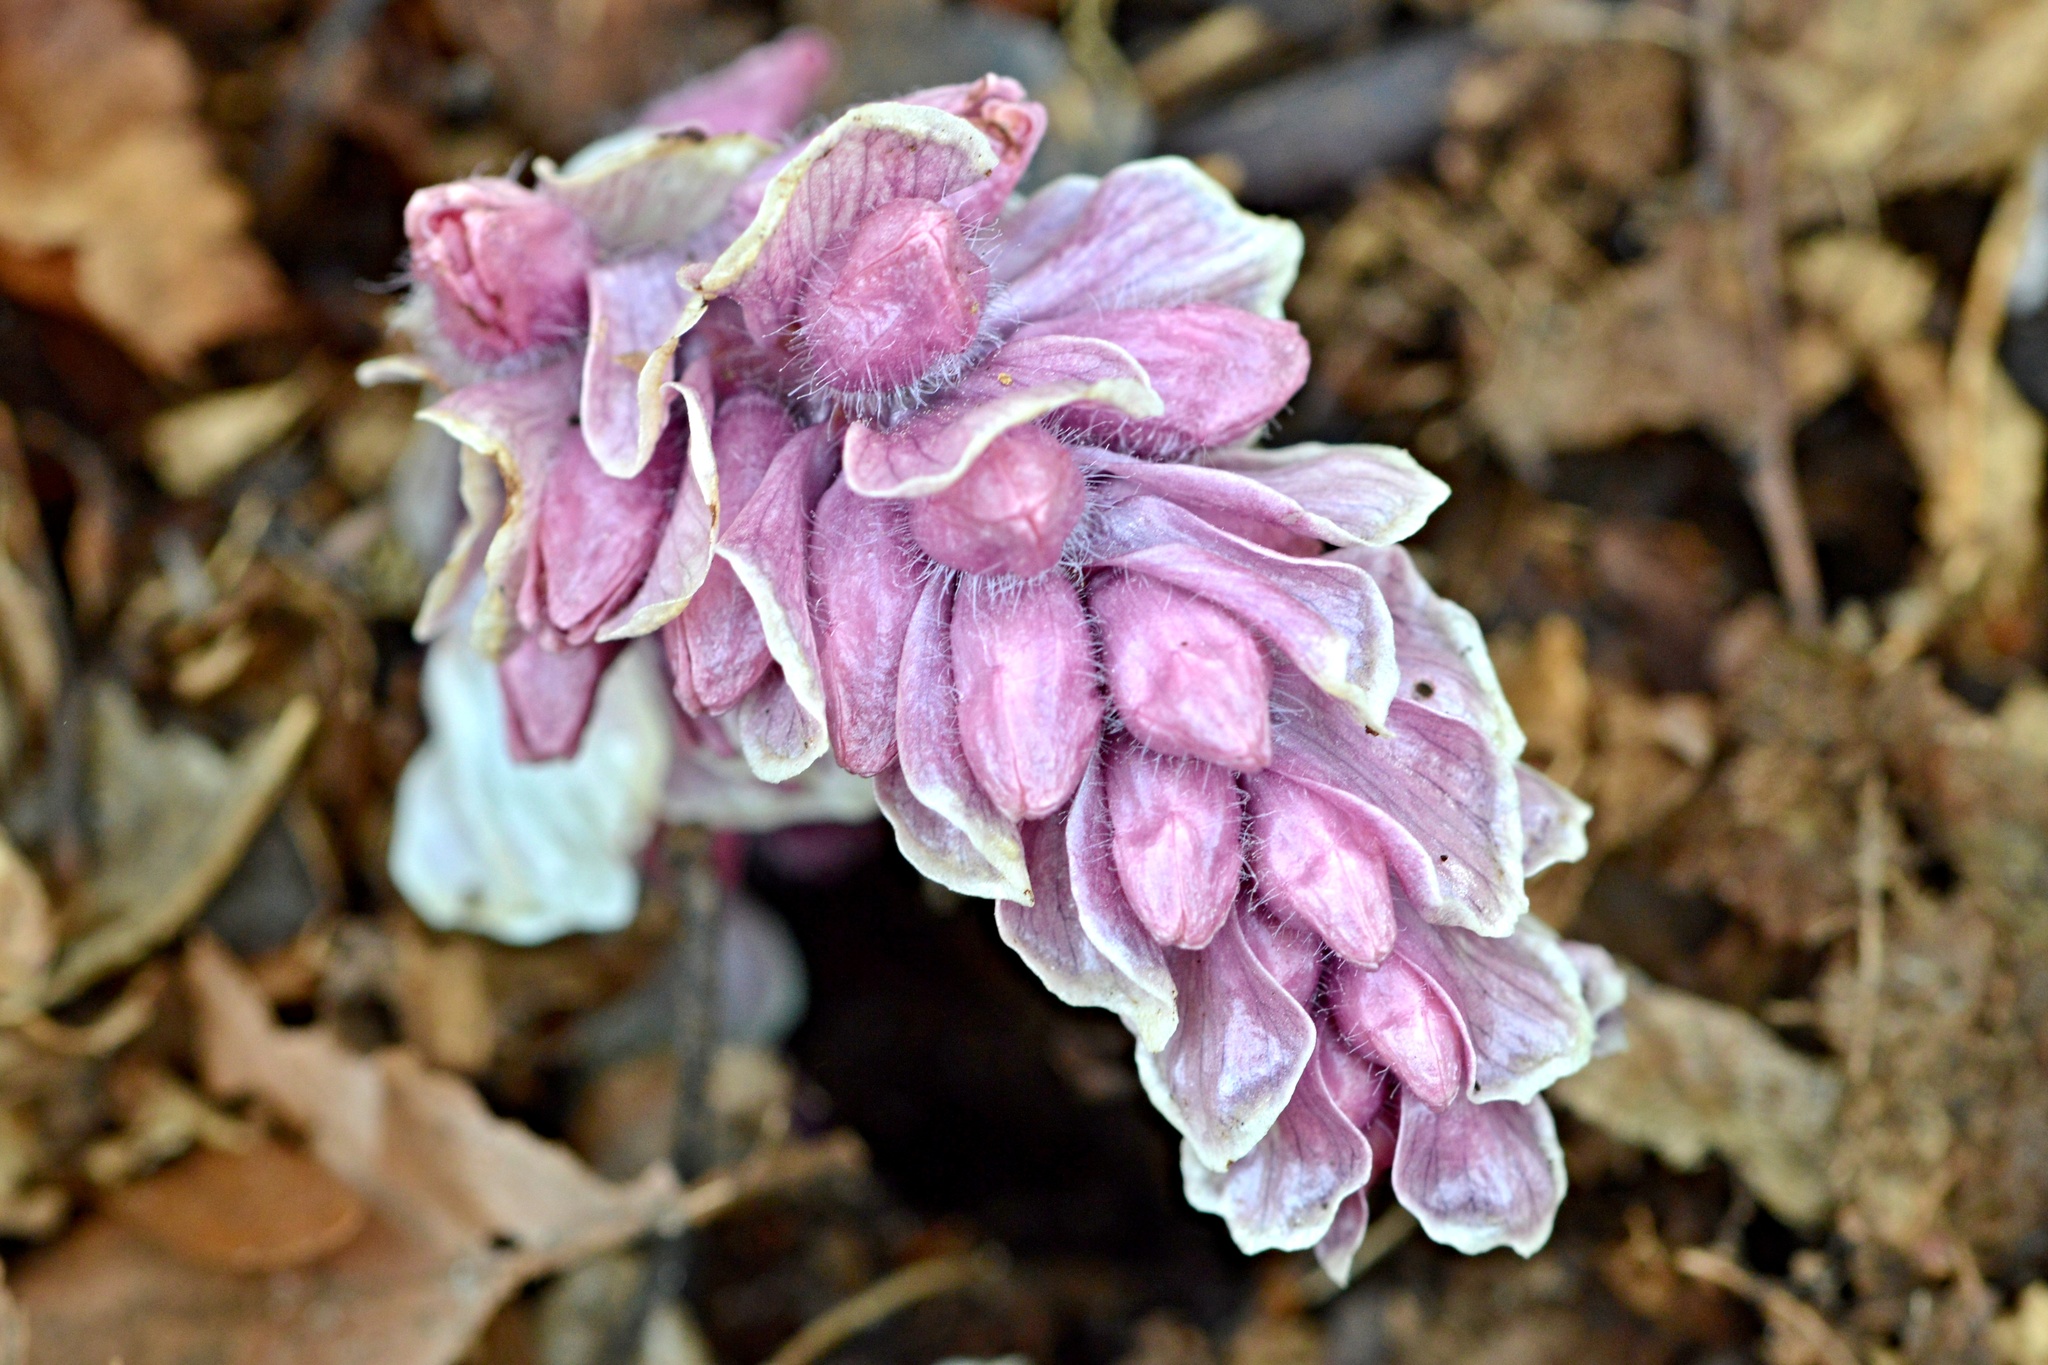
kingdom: Plantae
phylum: Tracheophyta
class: Magnoliopsida
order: Lamiales
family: Orobanchaceae
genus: Lathraea
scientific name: Lathraea squamaria
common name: Toothwort
